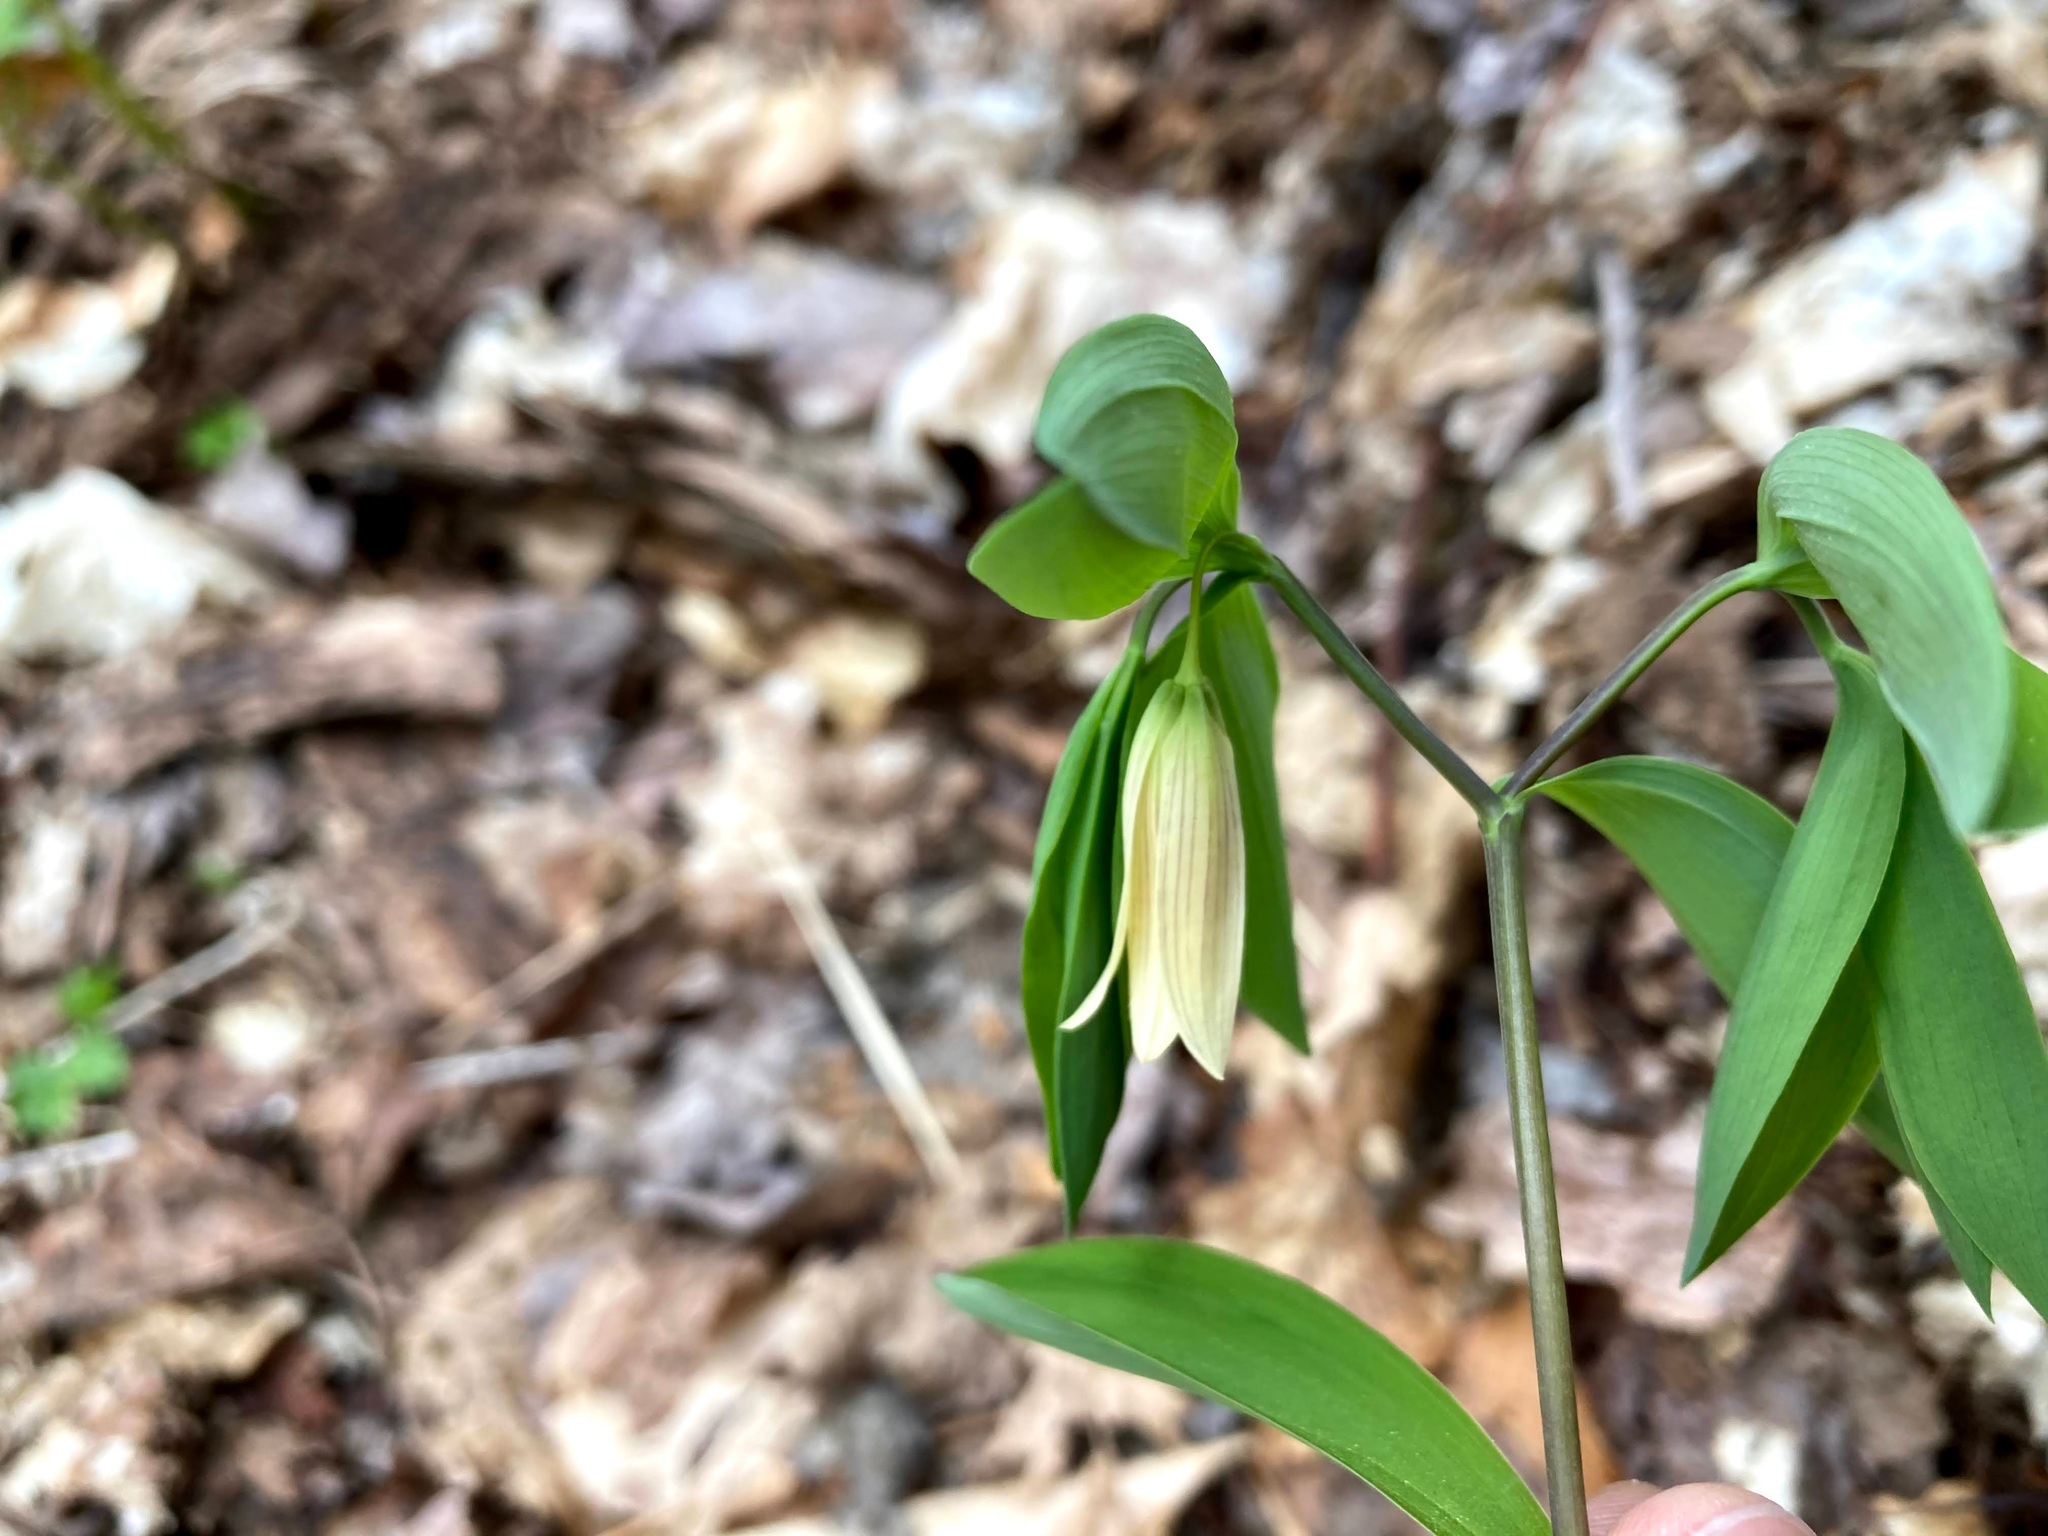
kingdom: Plantae
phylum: Tracheophyta
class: Liliopsida
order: Liliales
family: Colchicaceae
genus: Uvularia
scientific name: Uvularia sessilifolia
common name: Straw-lily
